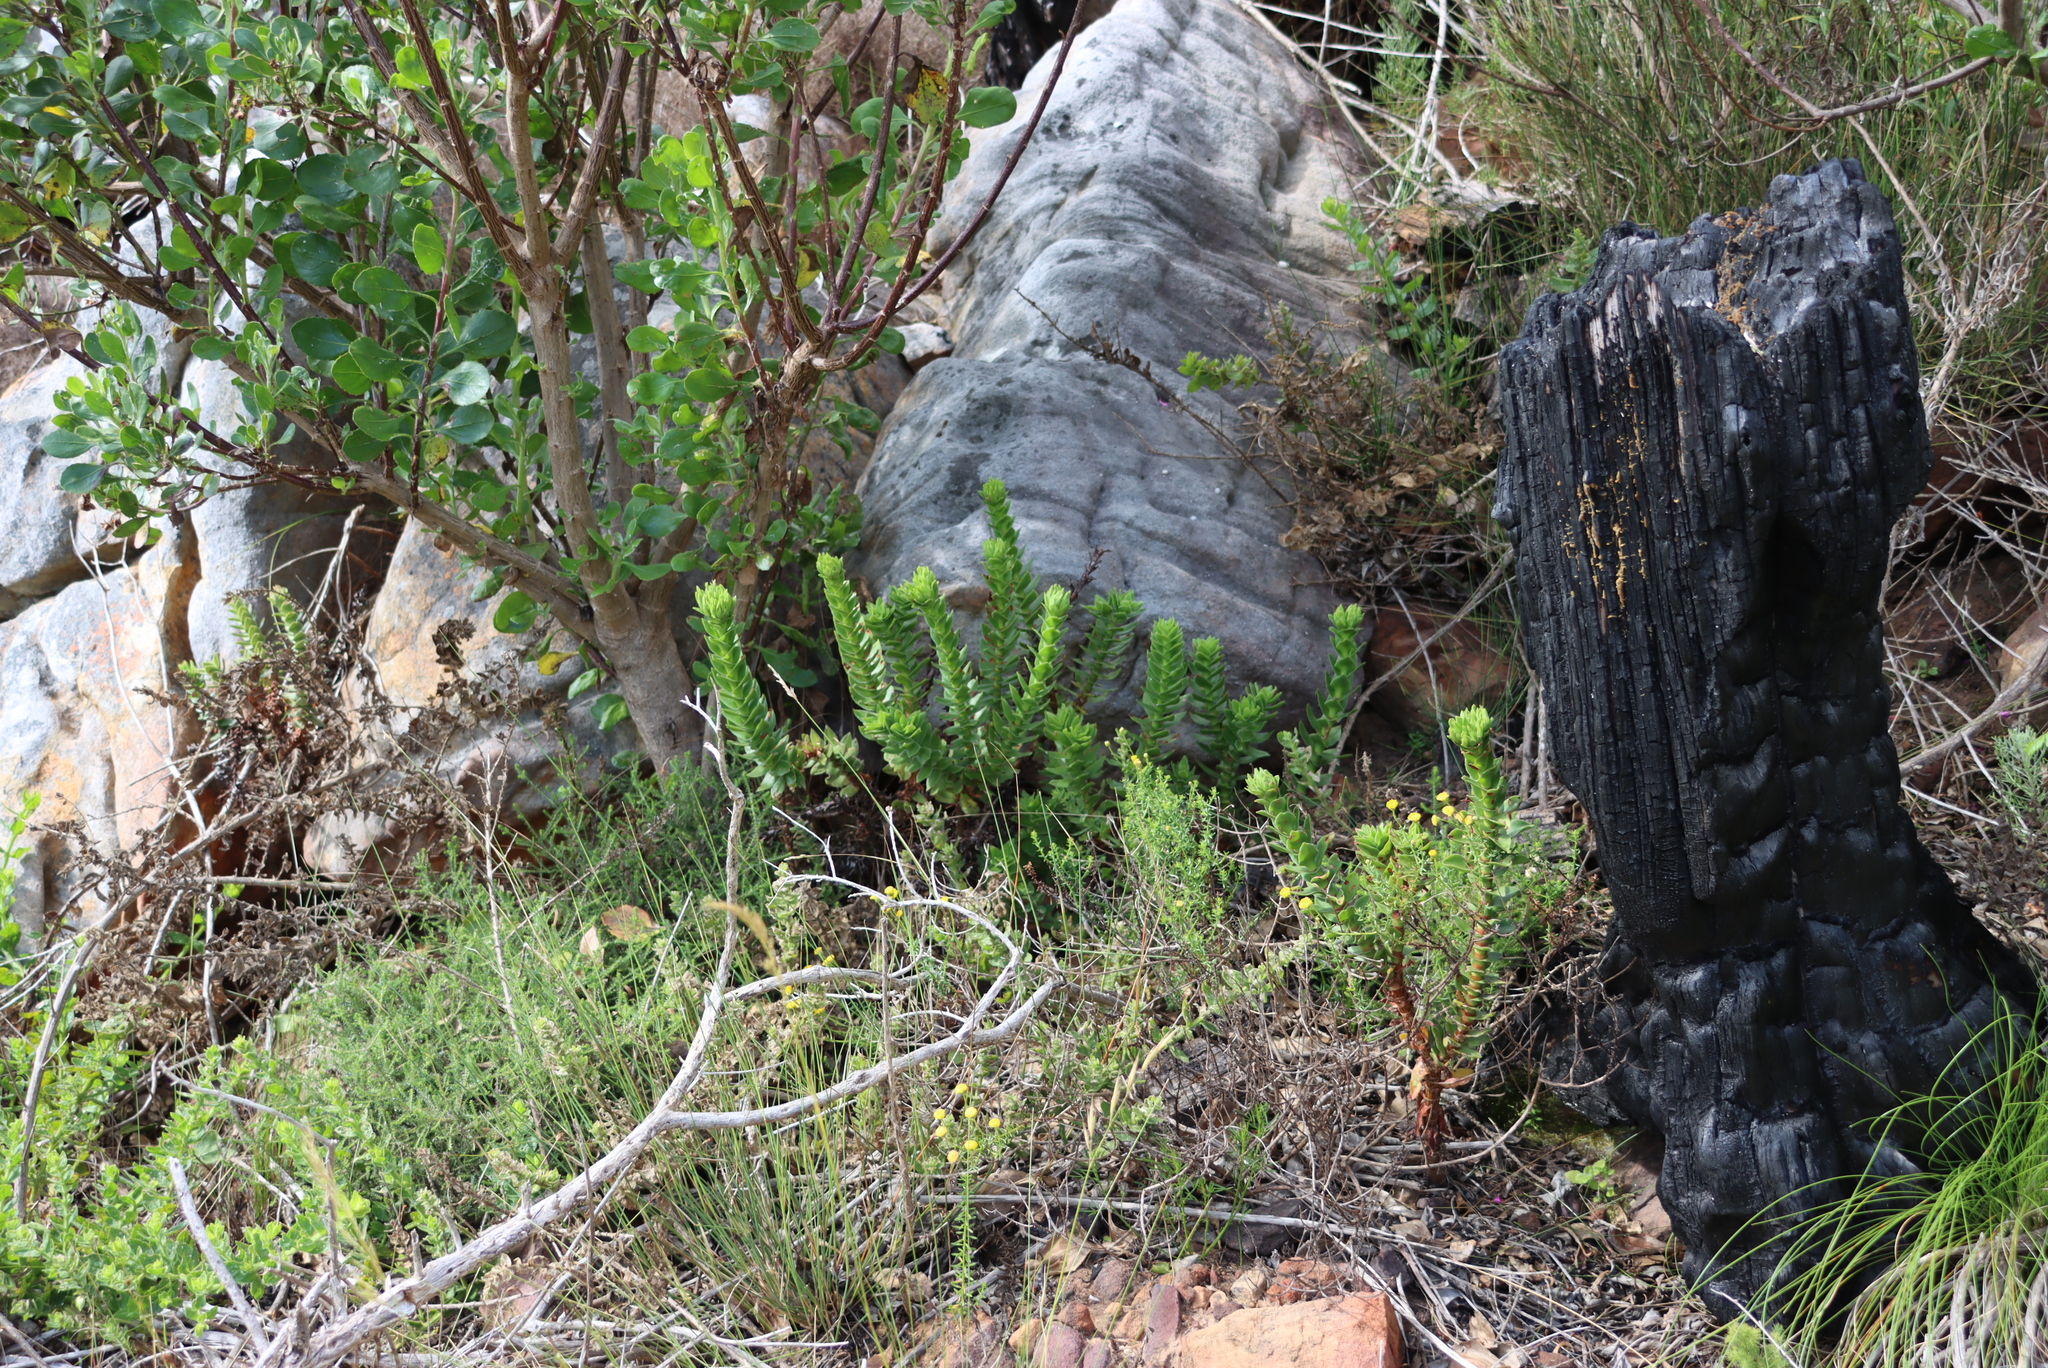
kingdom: Plantae
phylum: Tracheophyta
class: Magnoliopsida
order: Saxifragales
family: Crassulaceae
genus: Crassula
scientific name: Crassula coccinea
